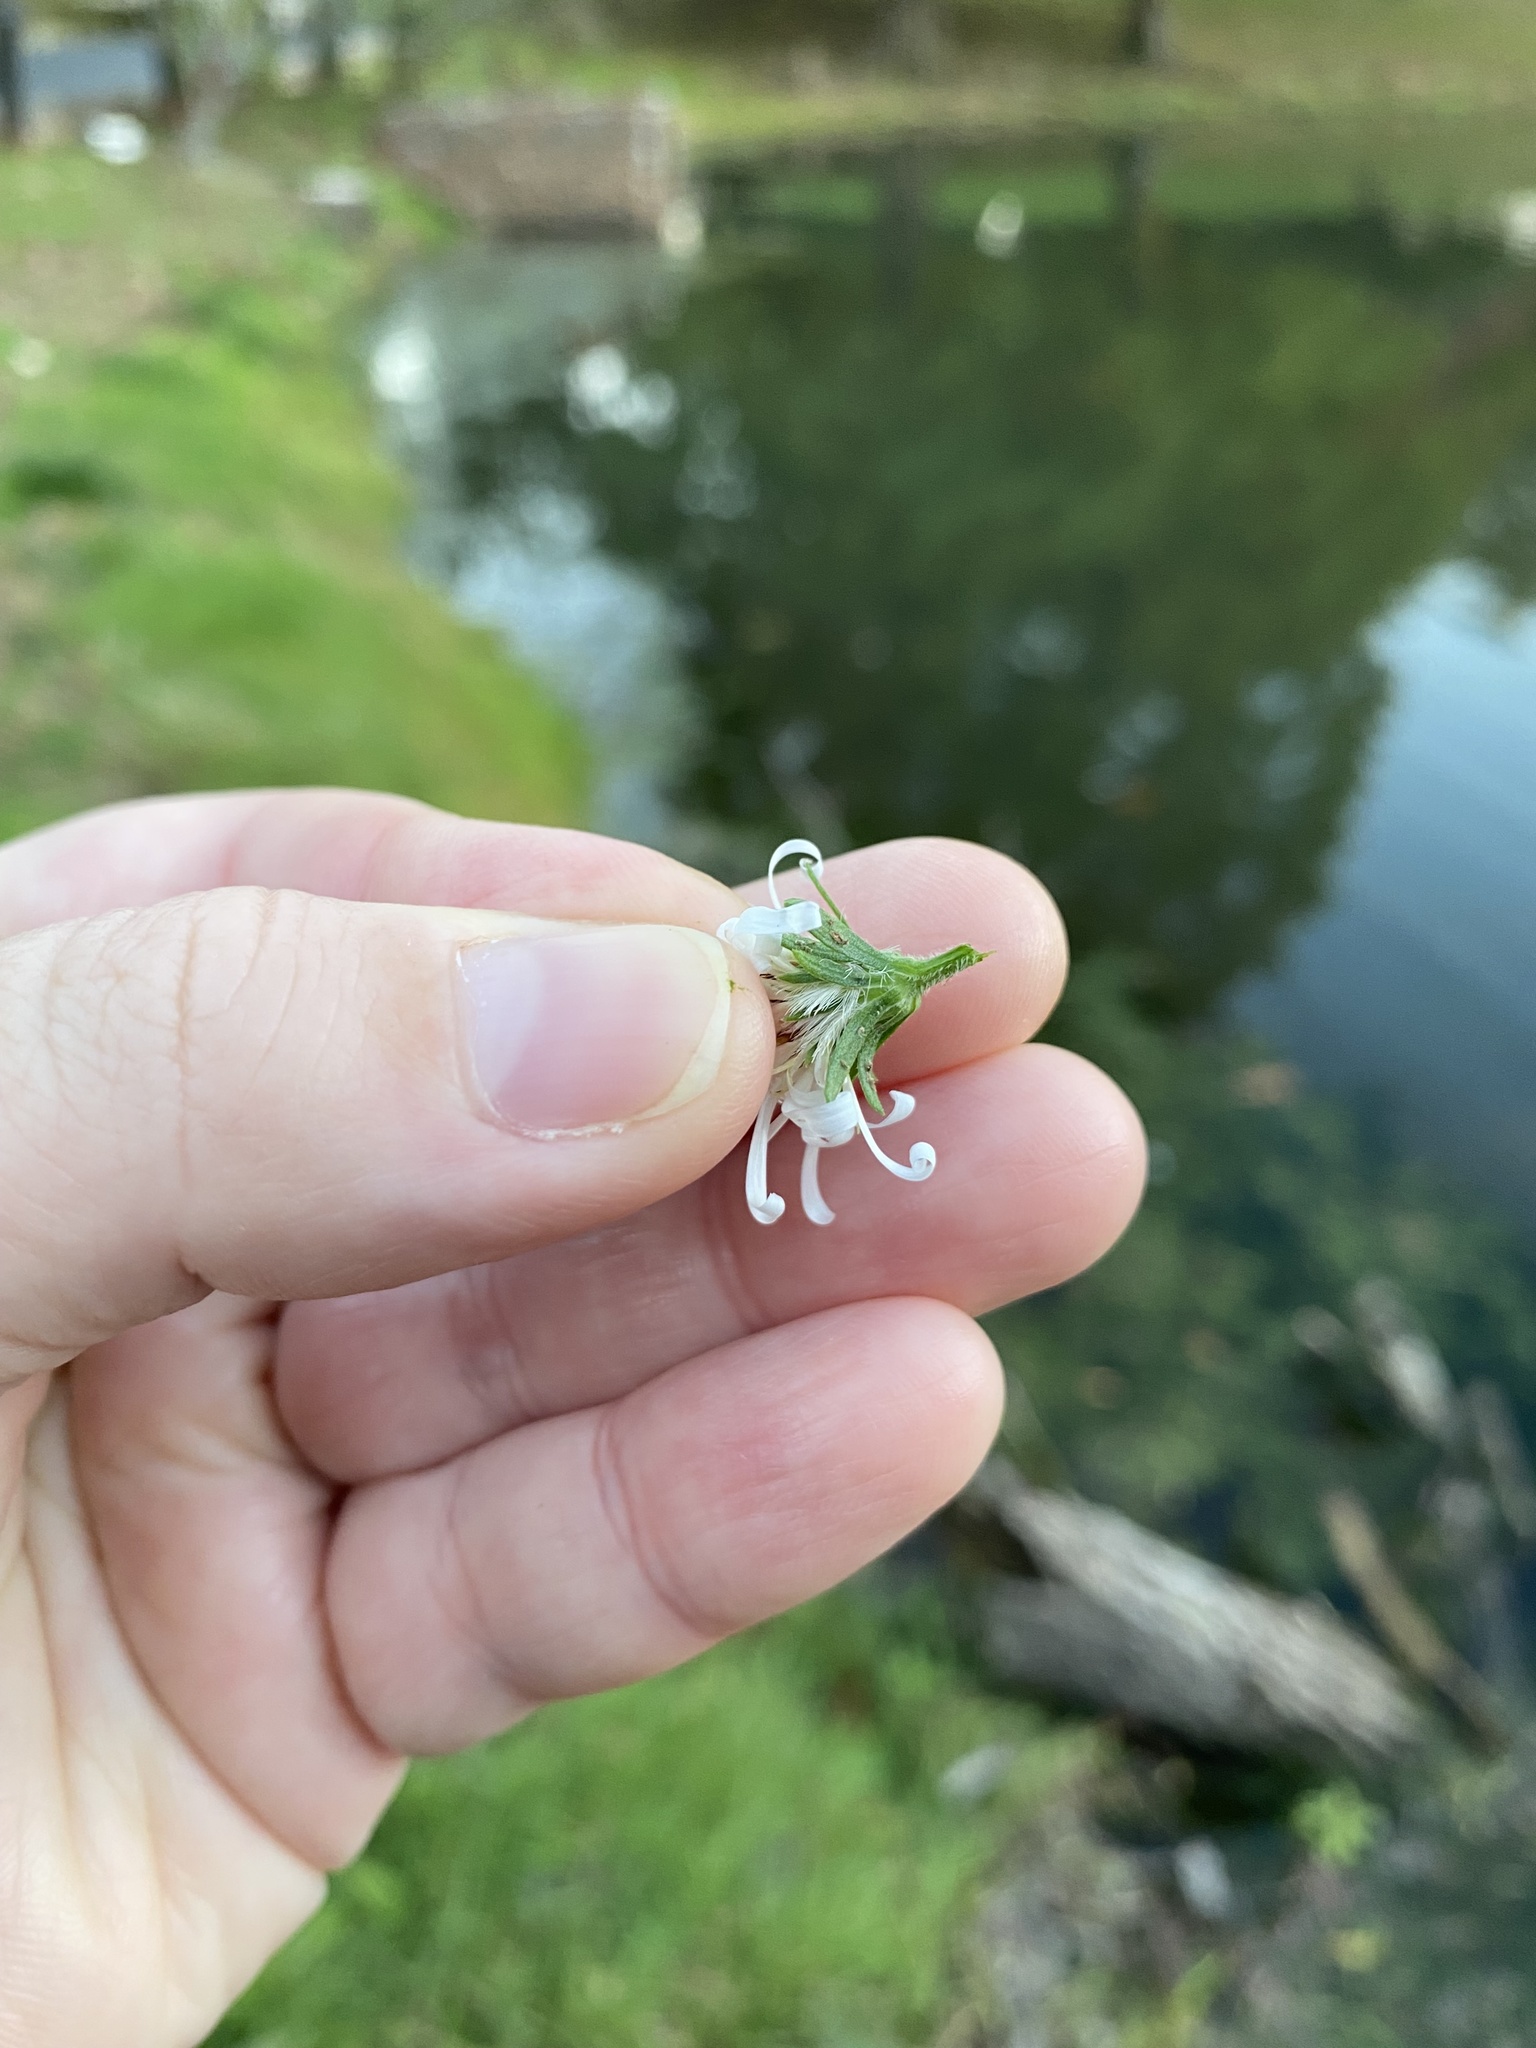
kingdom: Plantae
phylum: Tracheophyta
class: Magnoliopsida
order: Asterales
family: Asteraceae
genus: Symphyotrichum
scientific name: Symphyotrichum lanceolatum
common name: Panicled aster
